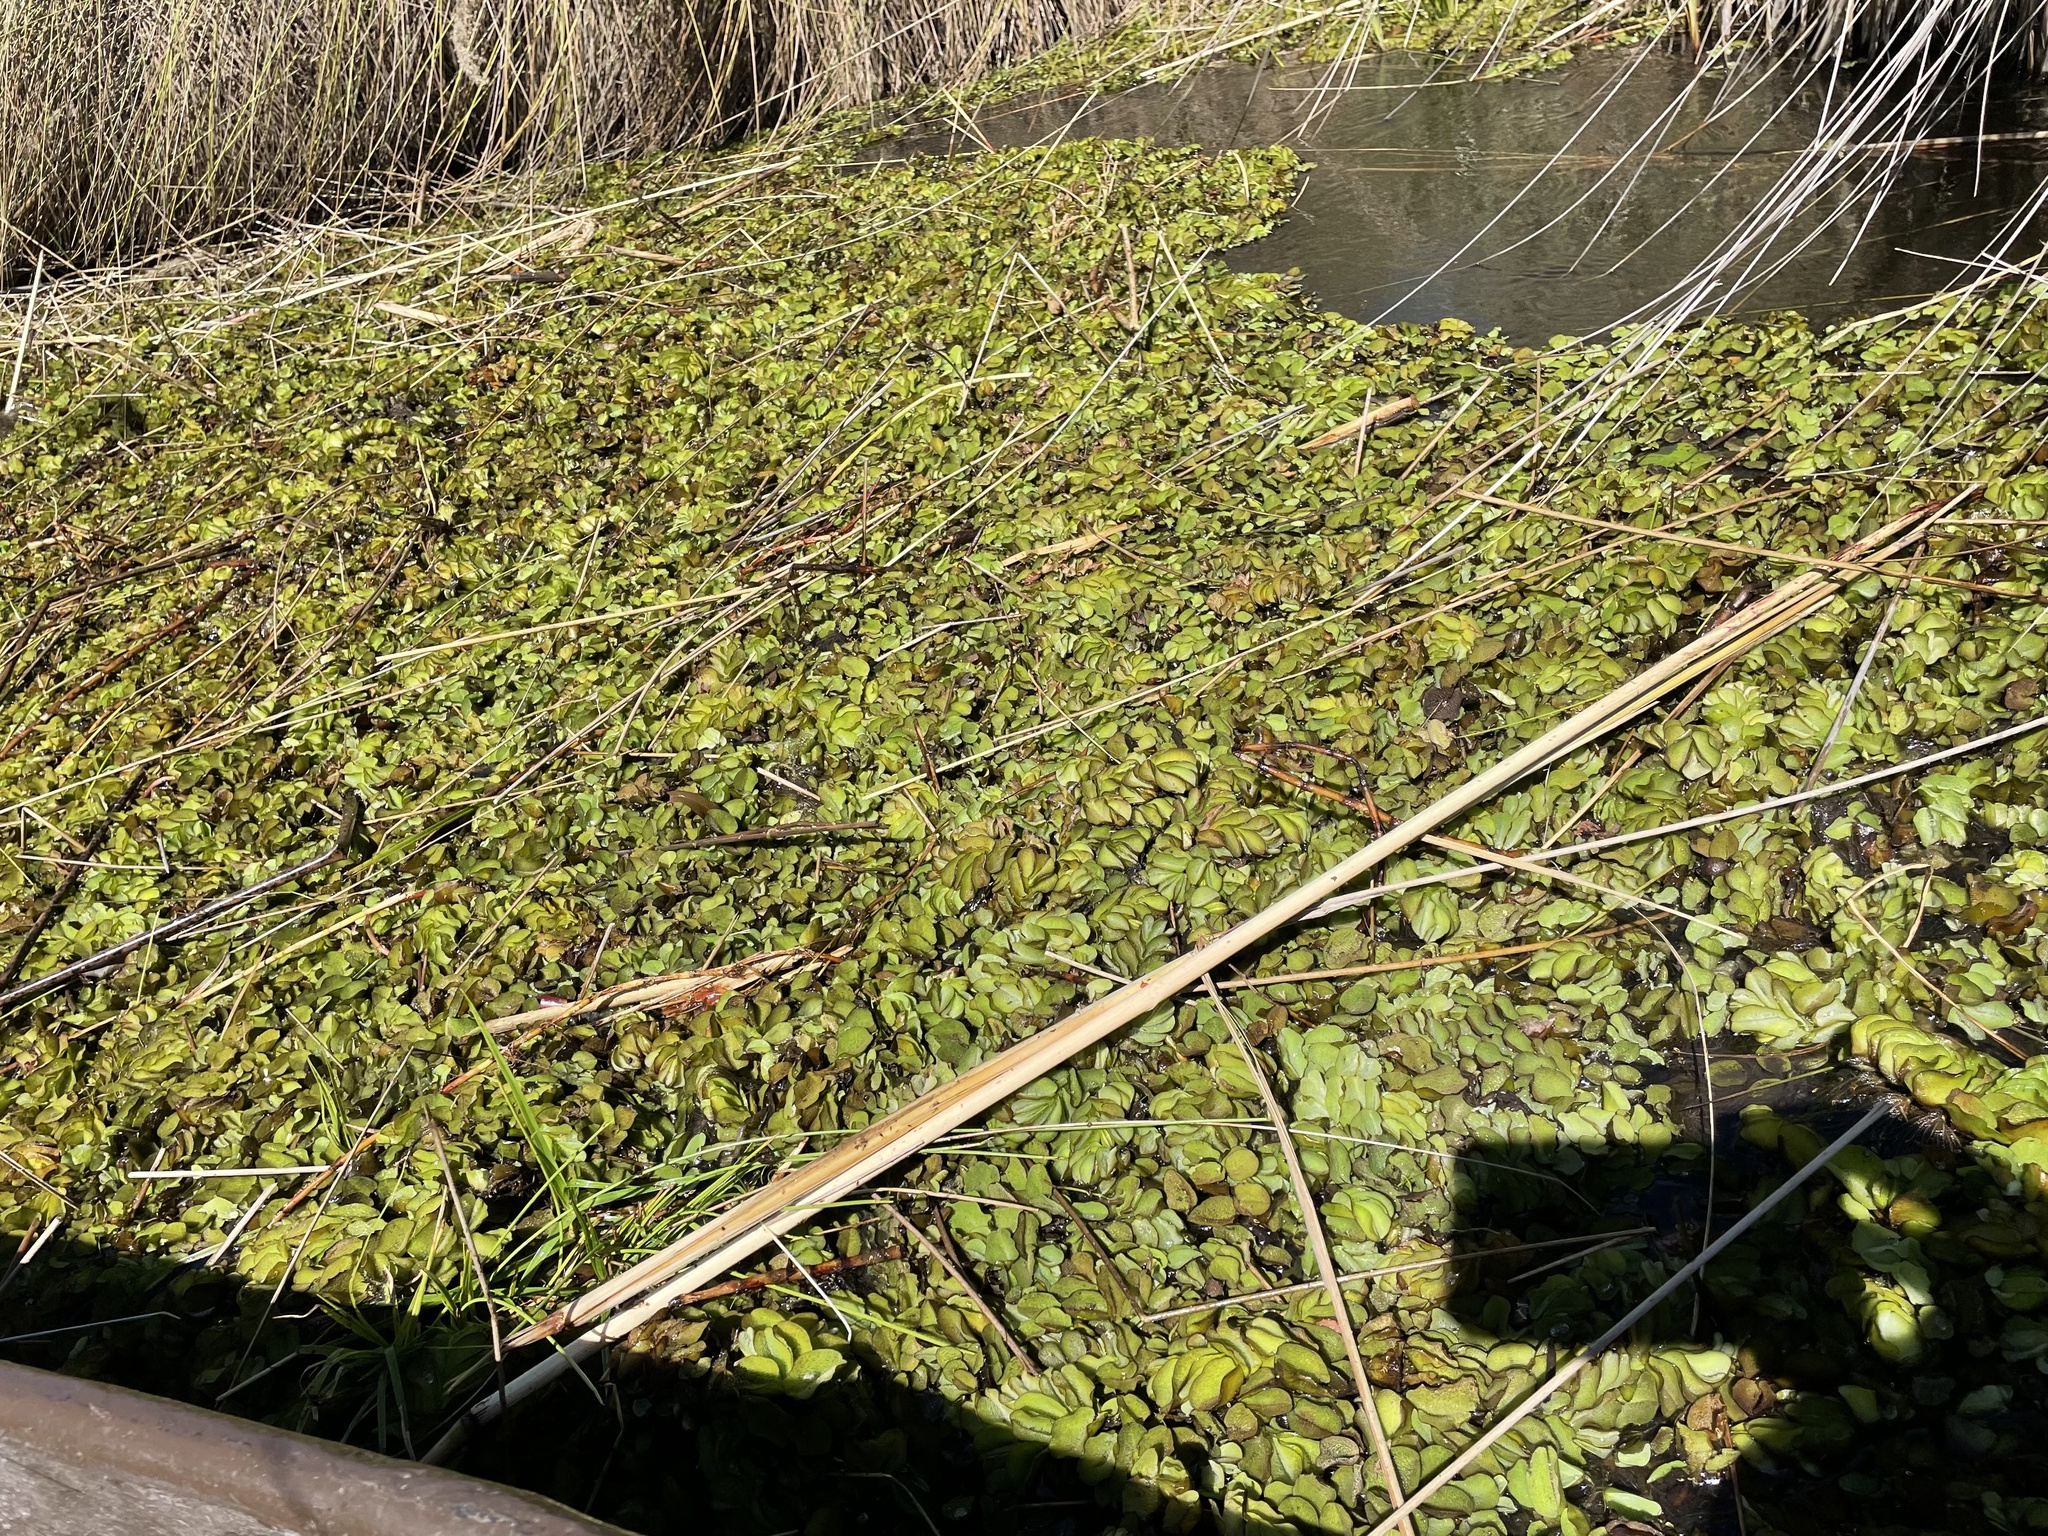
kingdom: Plantae
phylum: Tracheophyta
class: Polypodiopsida
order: Salviniales
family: Salviniaceae
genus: Salvinia
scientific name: Salvinia molesta
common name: Kariba weed
